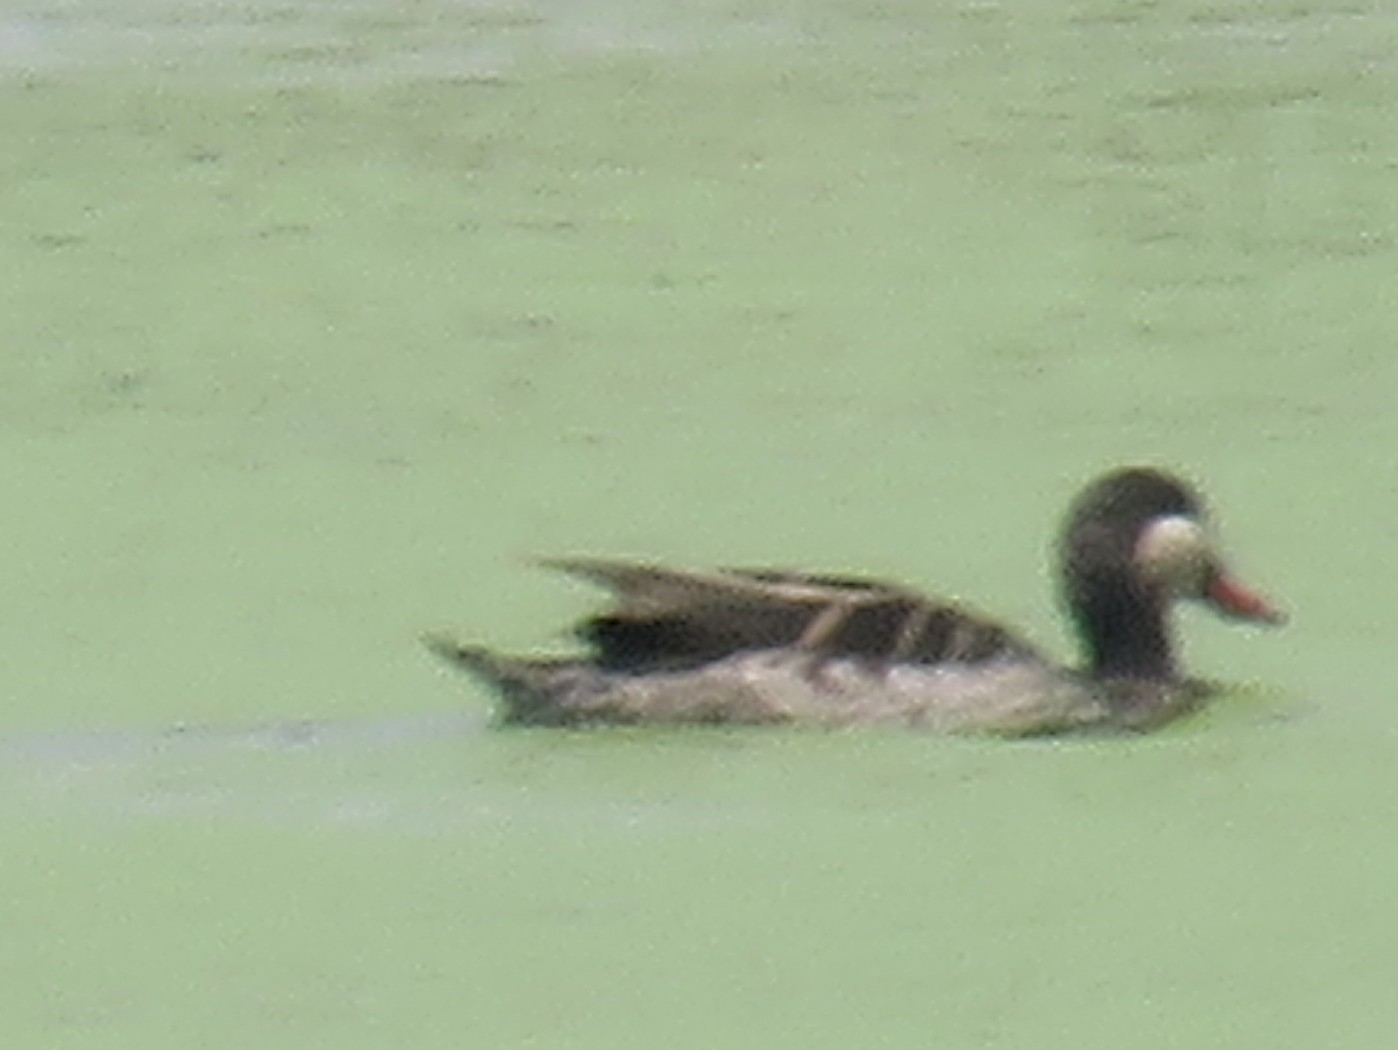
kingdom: Animalia
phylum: Chordata
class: Aves
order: Anseriformes
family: Anatidae
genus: Anas
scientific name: Anas erythrorhyncha
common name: Red-billed teal
